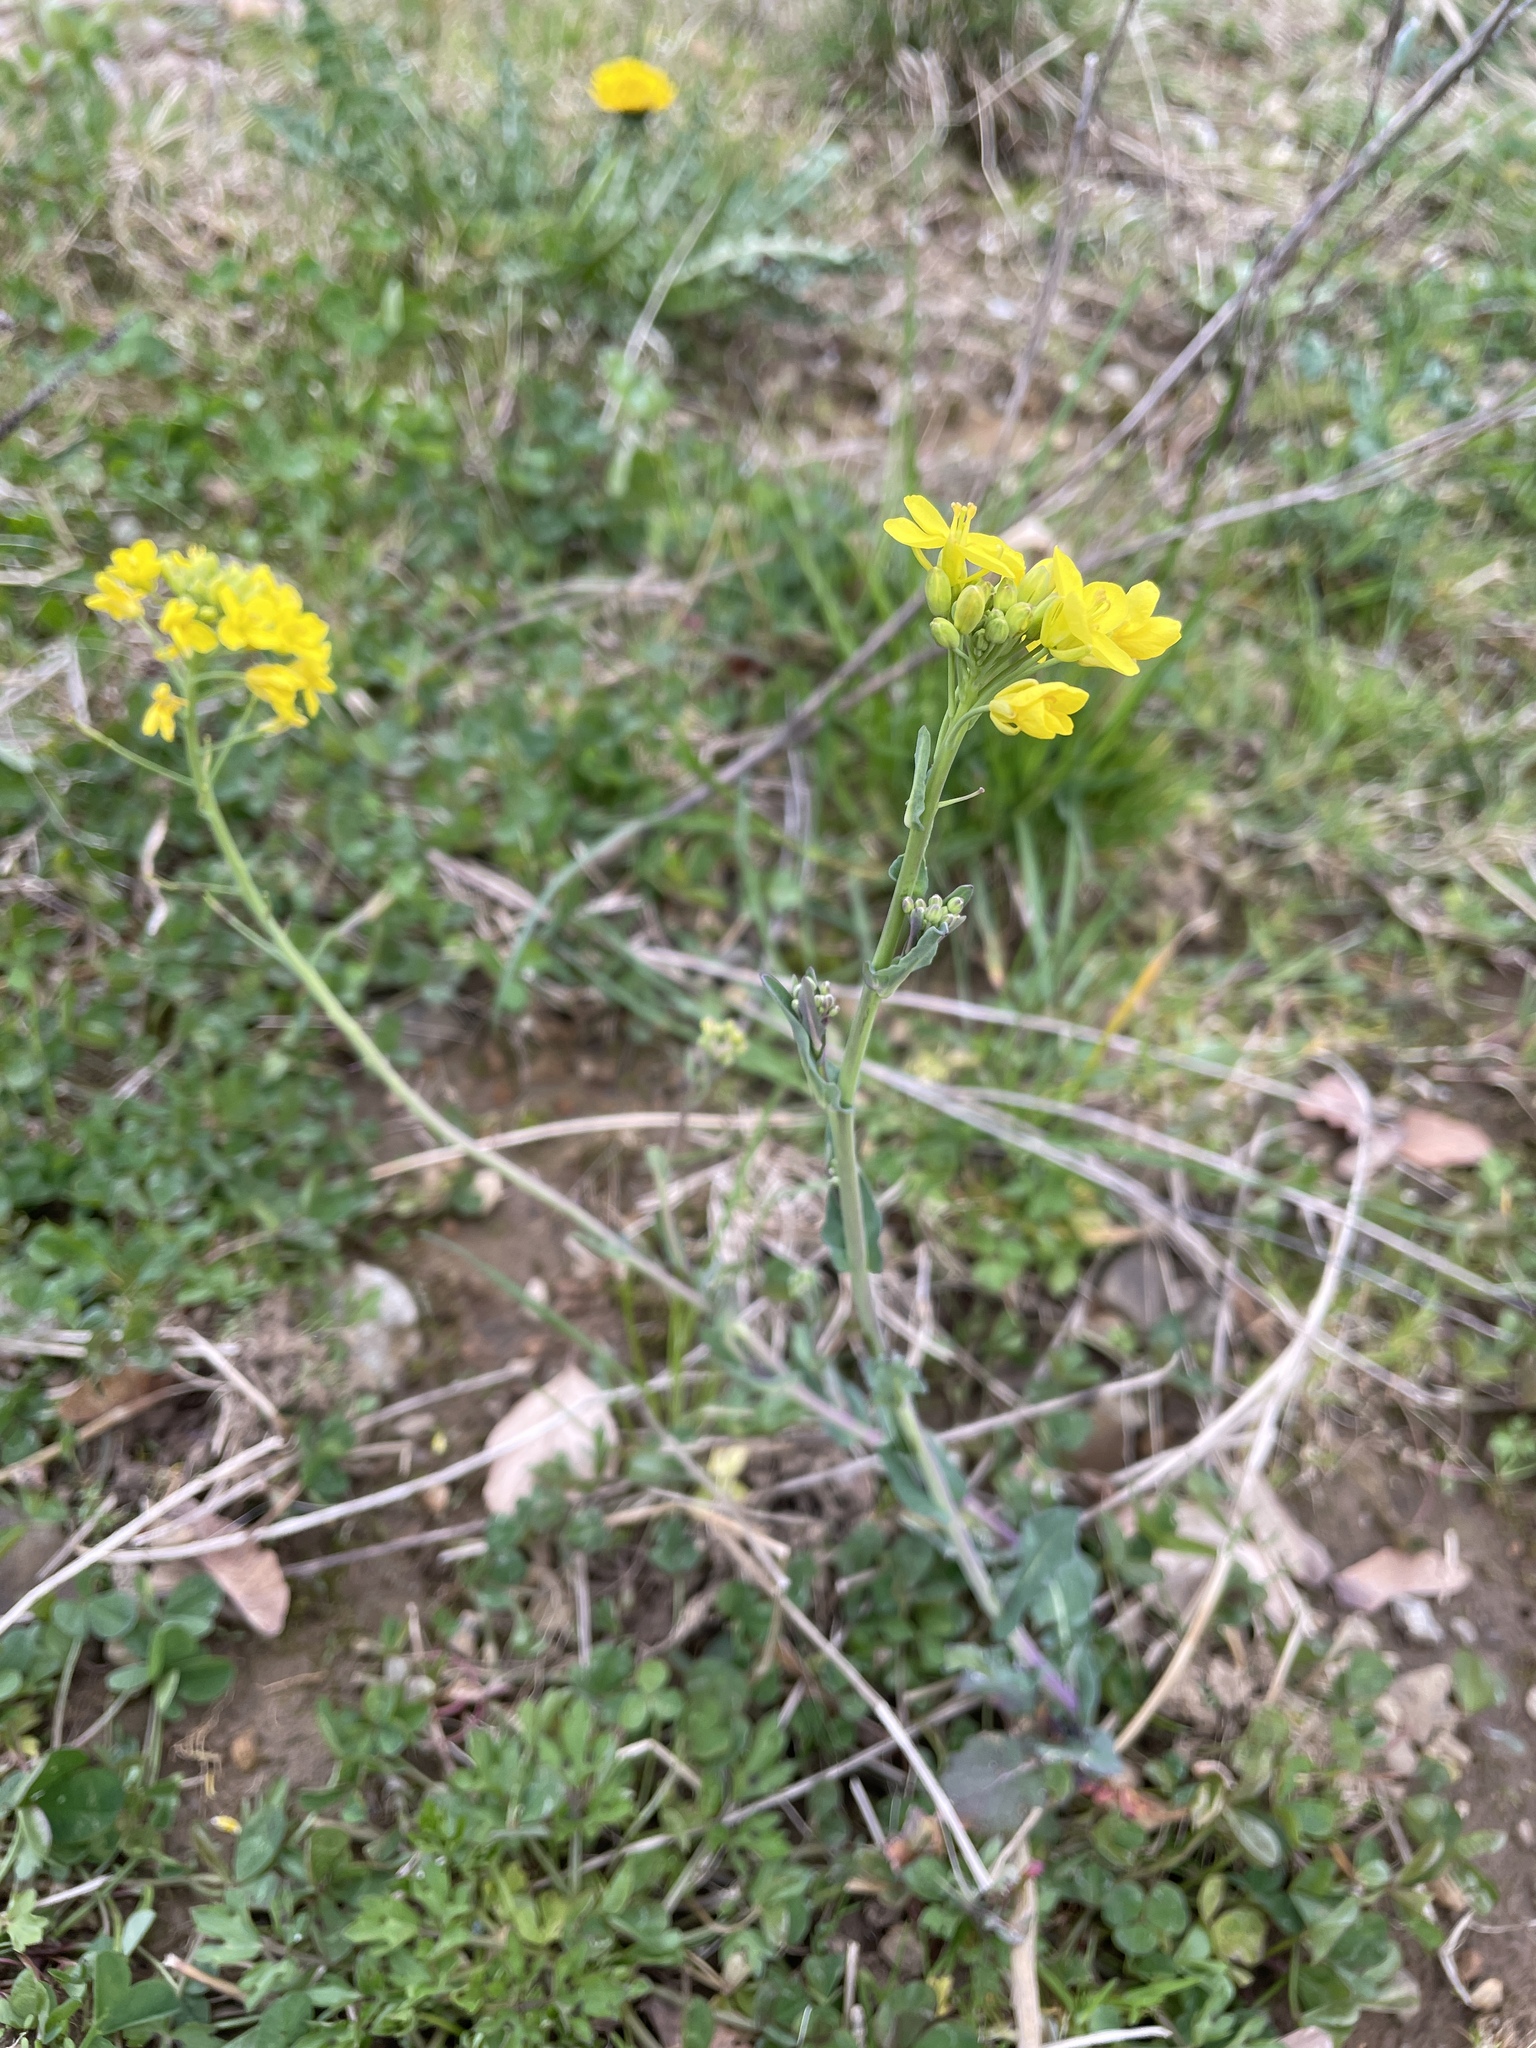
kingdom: Plantae
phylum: Tracheophyta
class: Magnoliopsida
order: Brassicales
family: Brassicaceae
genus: Brassica
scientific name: Brassica napus
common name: Rape
